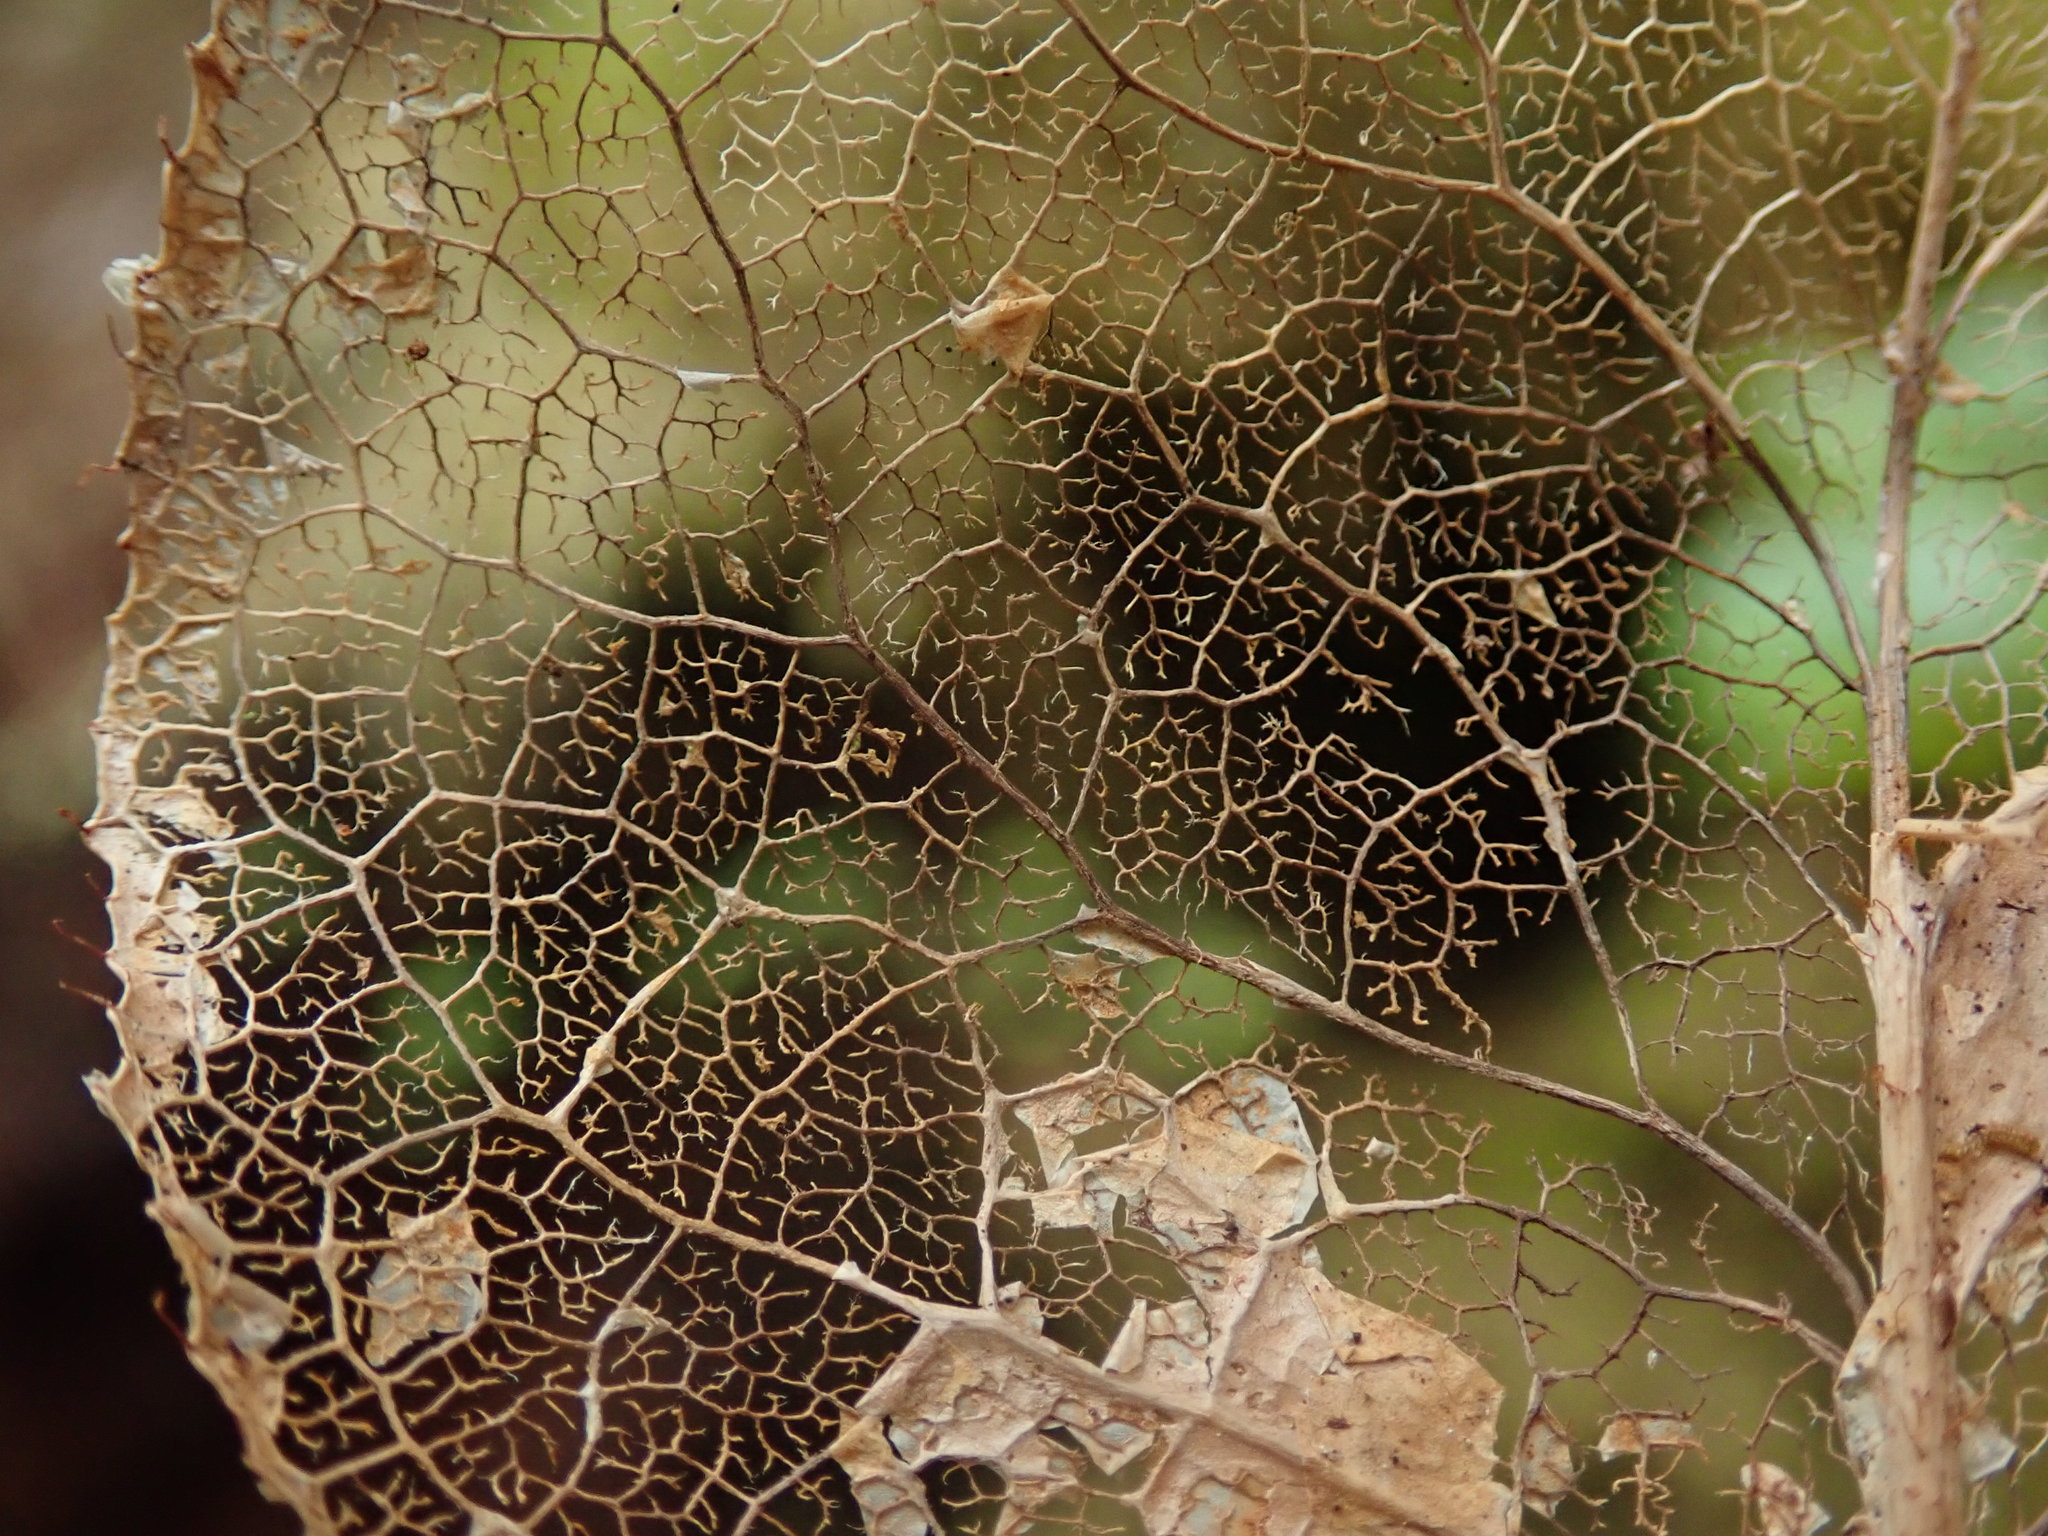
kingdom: Plantae
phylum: Tracheophyta
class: Magnoliopsida
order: Ericales
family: Ericaceae
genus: Gaultheria
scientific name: Gaultheria shallon
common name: Shallon
